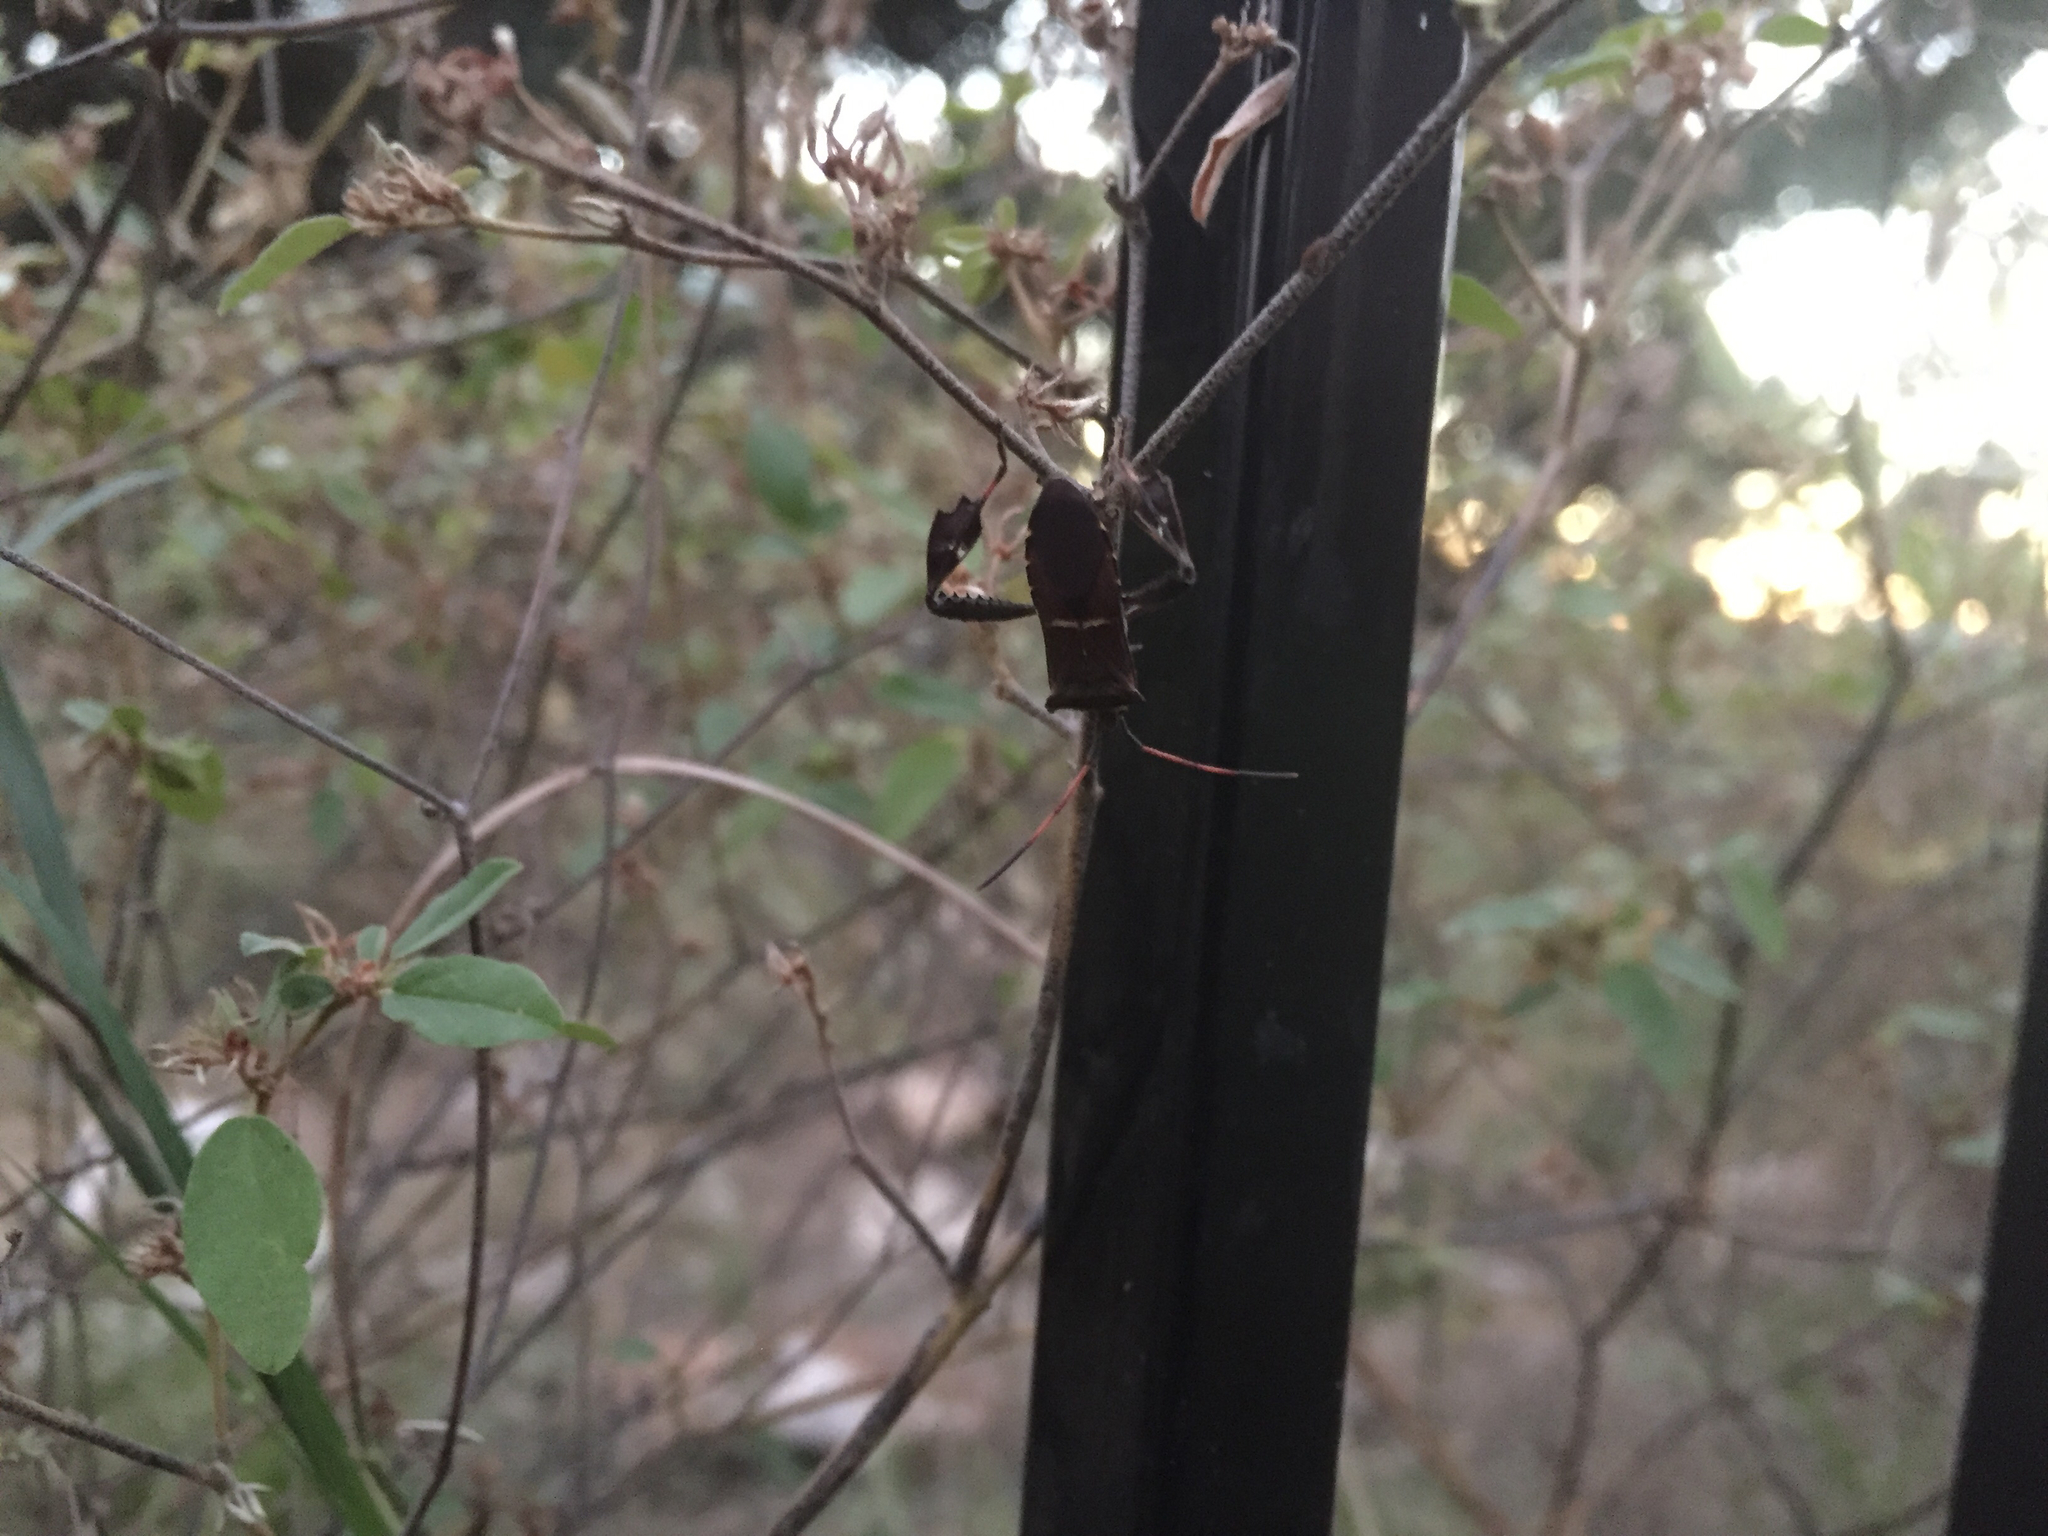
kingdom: Animalia
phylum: Arthropoda
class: Insecta
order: Hemiptera
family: Coreidae
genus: Leptoglossus
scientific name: Leptoglossus phyllopus
